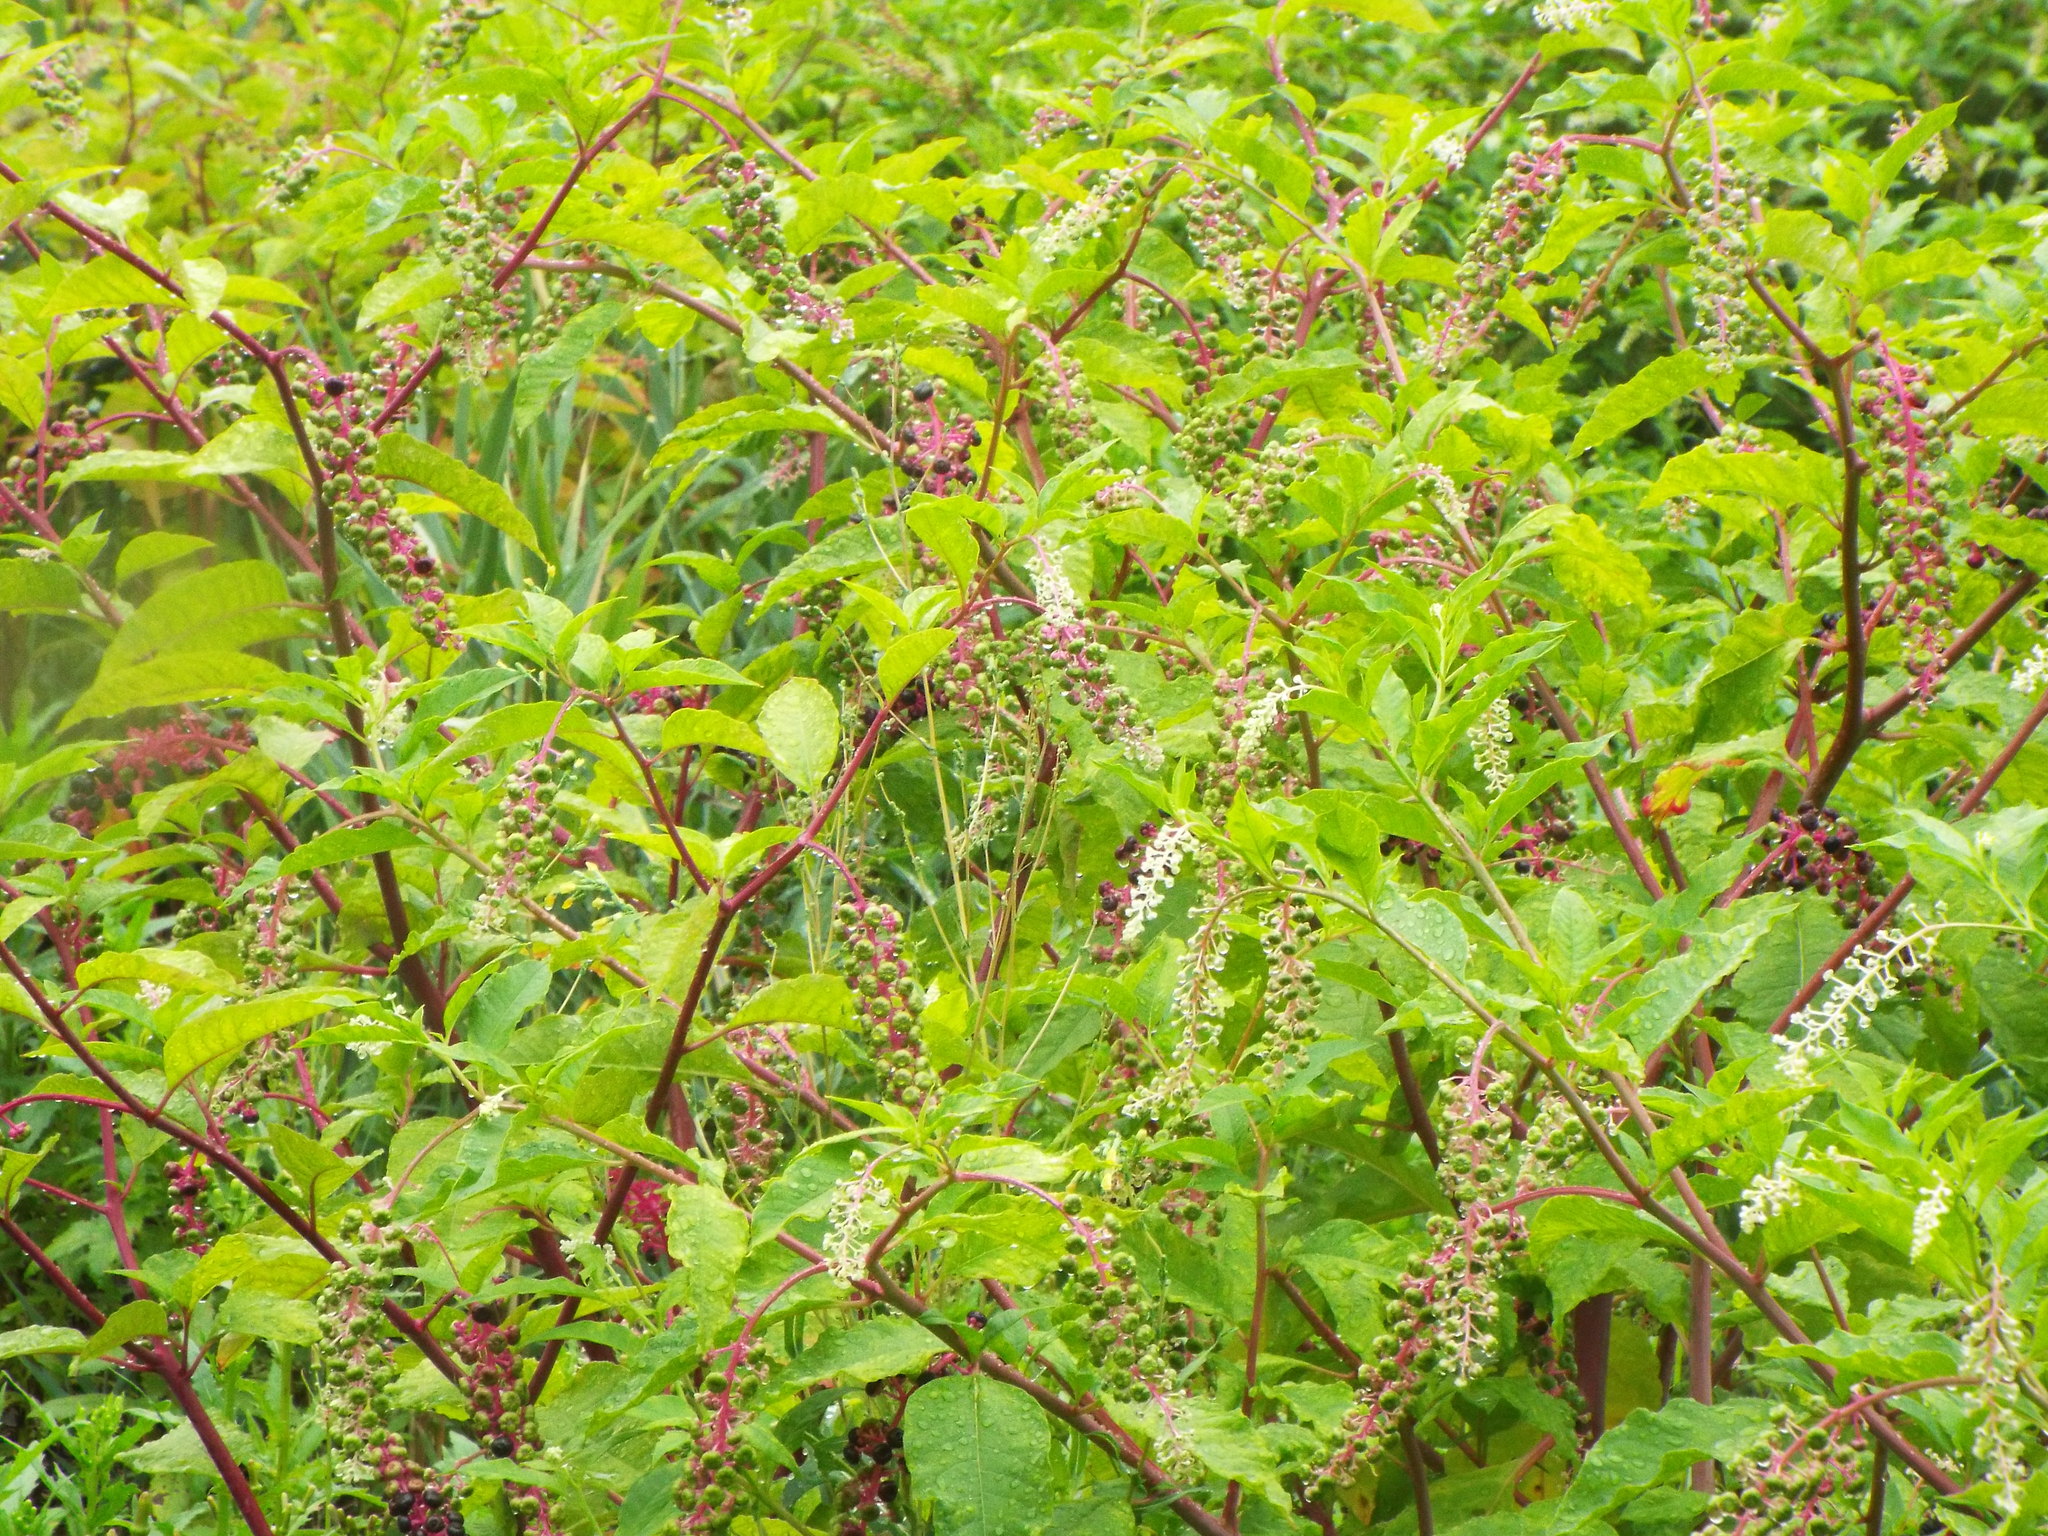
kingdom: Plantae
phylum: Tracheophyta
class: Magnoliopsida
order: Caryophyllales
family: Phytolaccaceae
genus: Phytolacca
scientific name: Phytolacca americana
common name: American pokeweed
